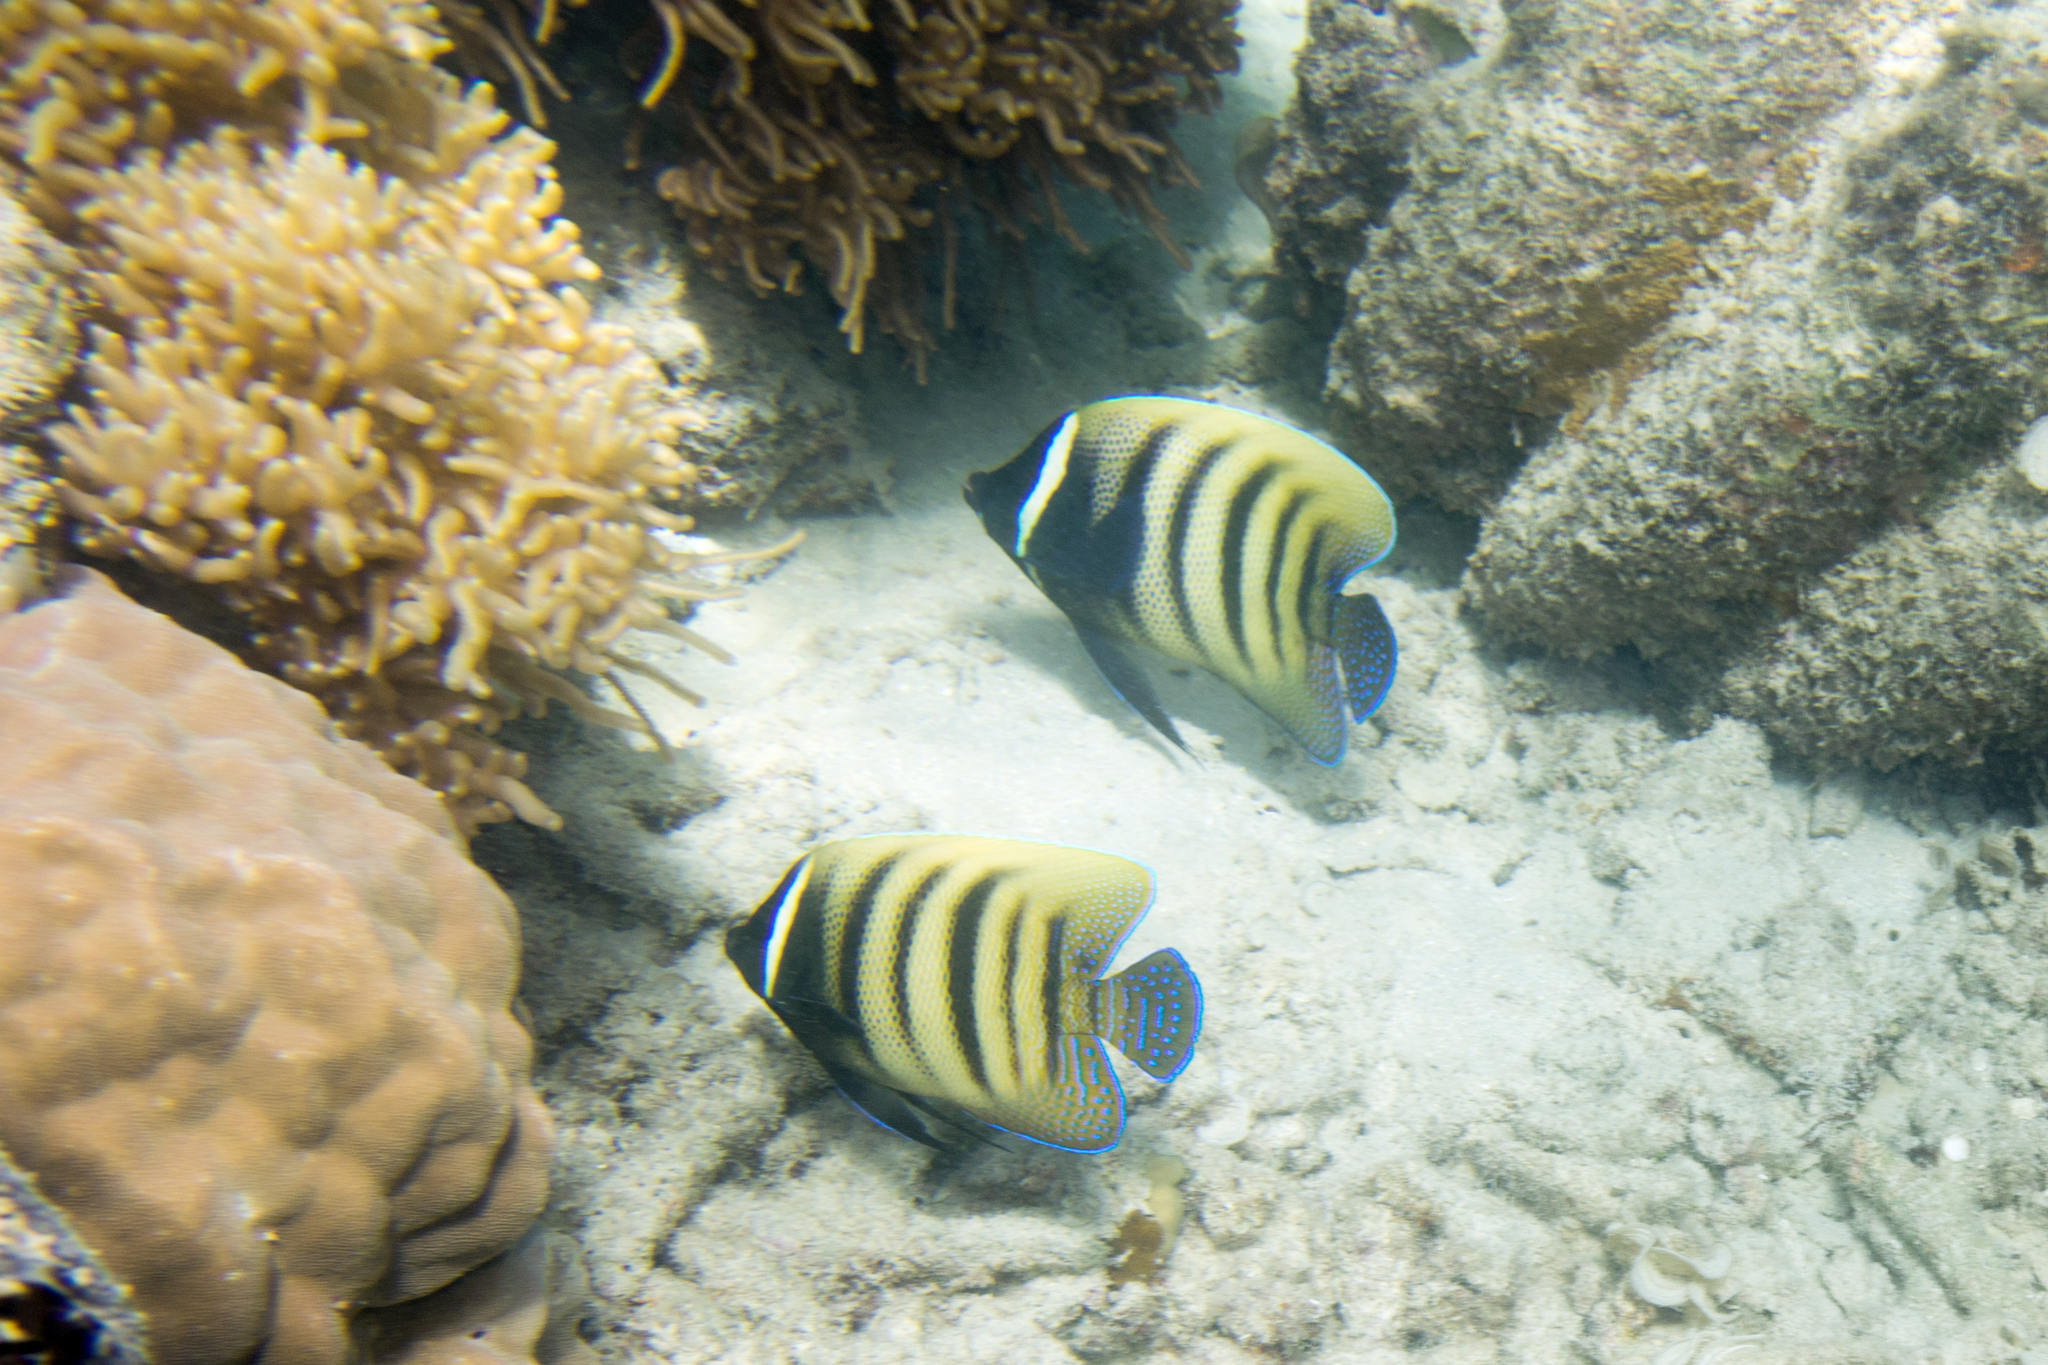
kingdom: Animalia
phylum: Chordata
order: Perciformes
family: Pomacanthidae
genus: Pomacanthus
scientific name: Pomacanthus sexstriatus
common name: Six-banded angelfish
